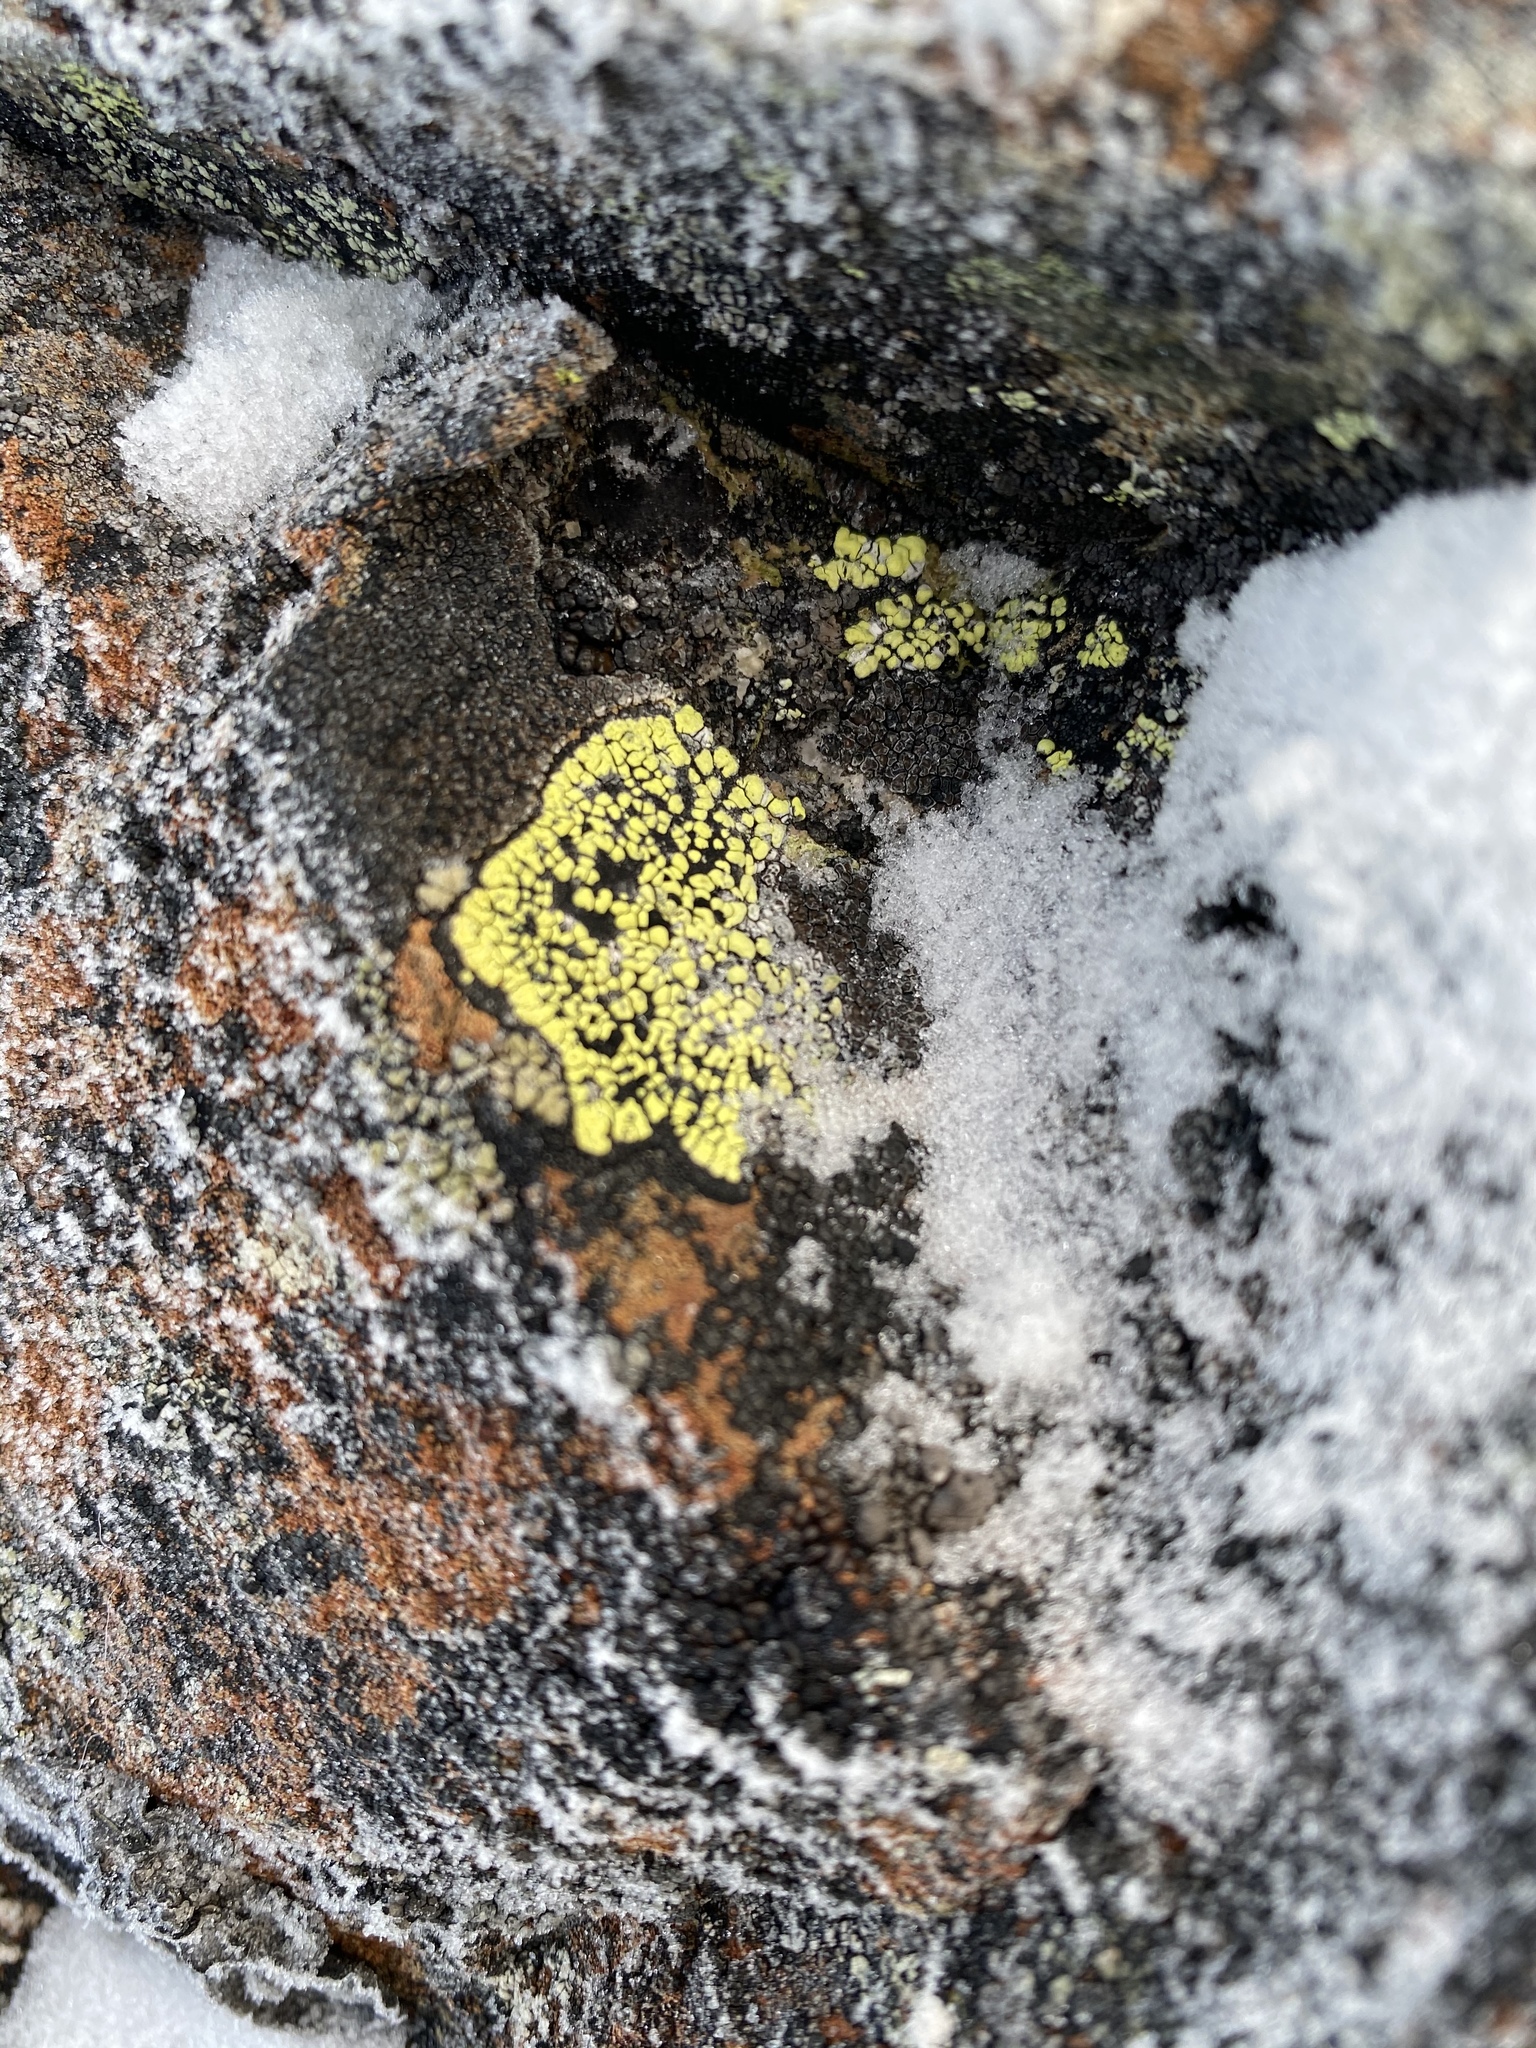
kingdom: Fungi
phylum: Ascomycota
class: Lecanoromycetes
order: Rhizocarpales
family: Rhizocarpaceae
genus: Rhizocarpon
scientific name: Rhizocarpon geographicum
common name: Yellow map lichen
